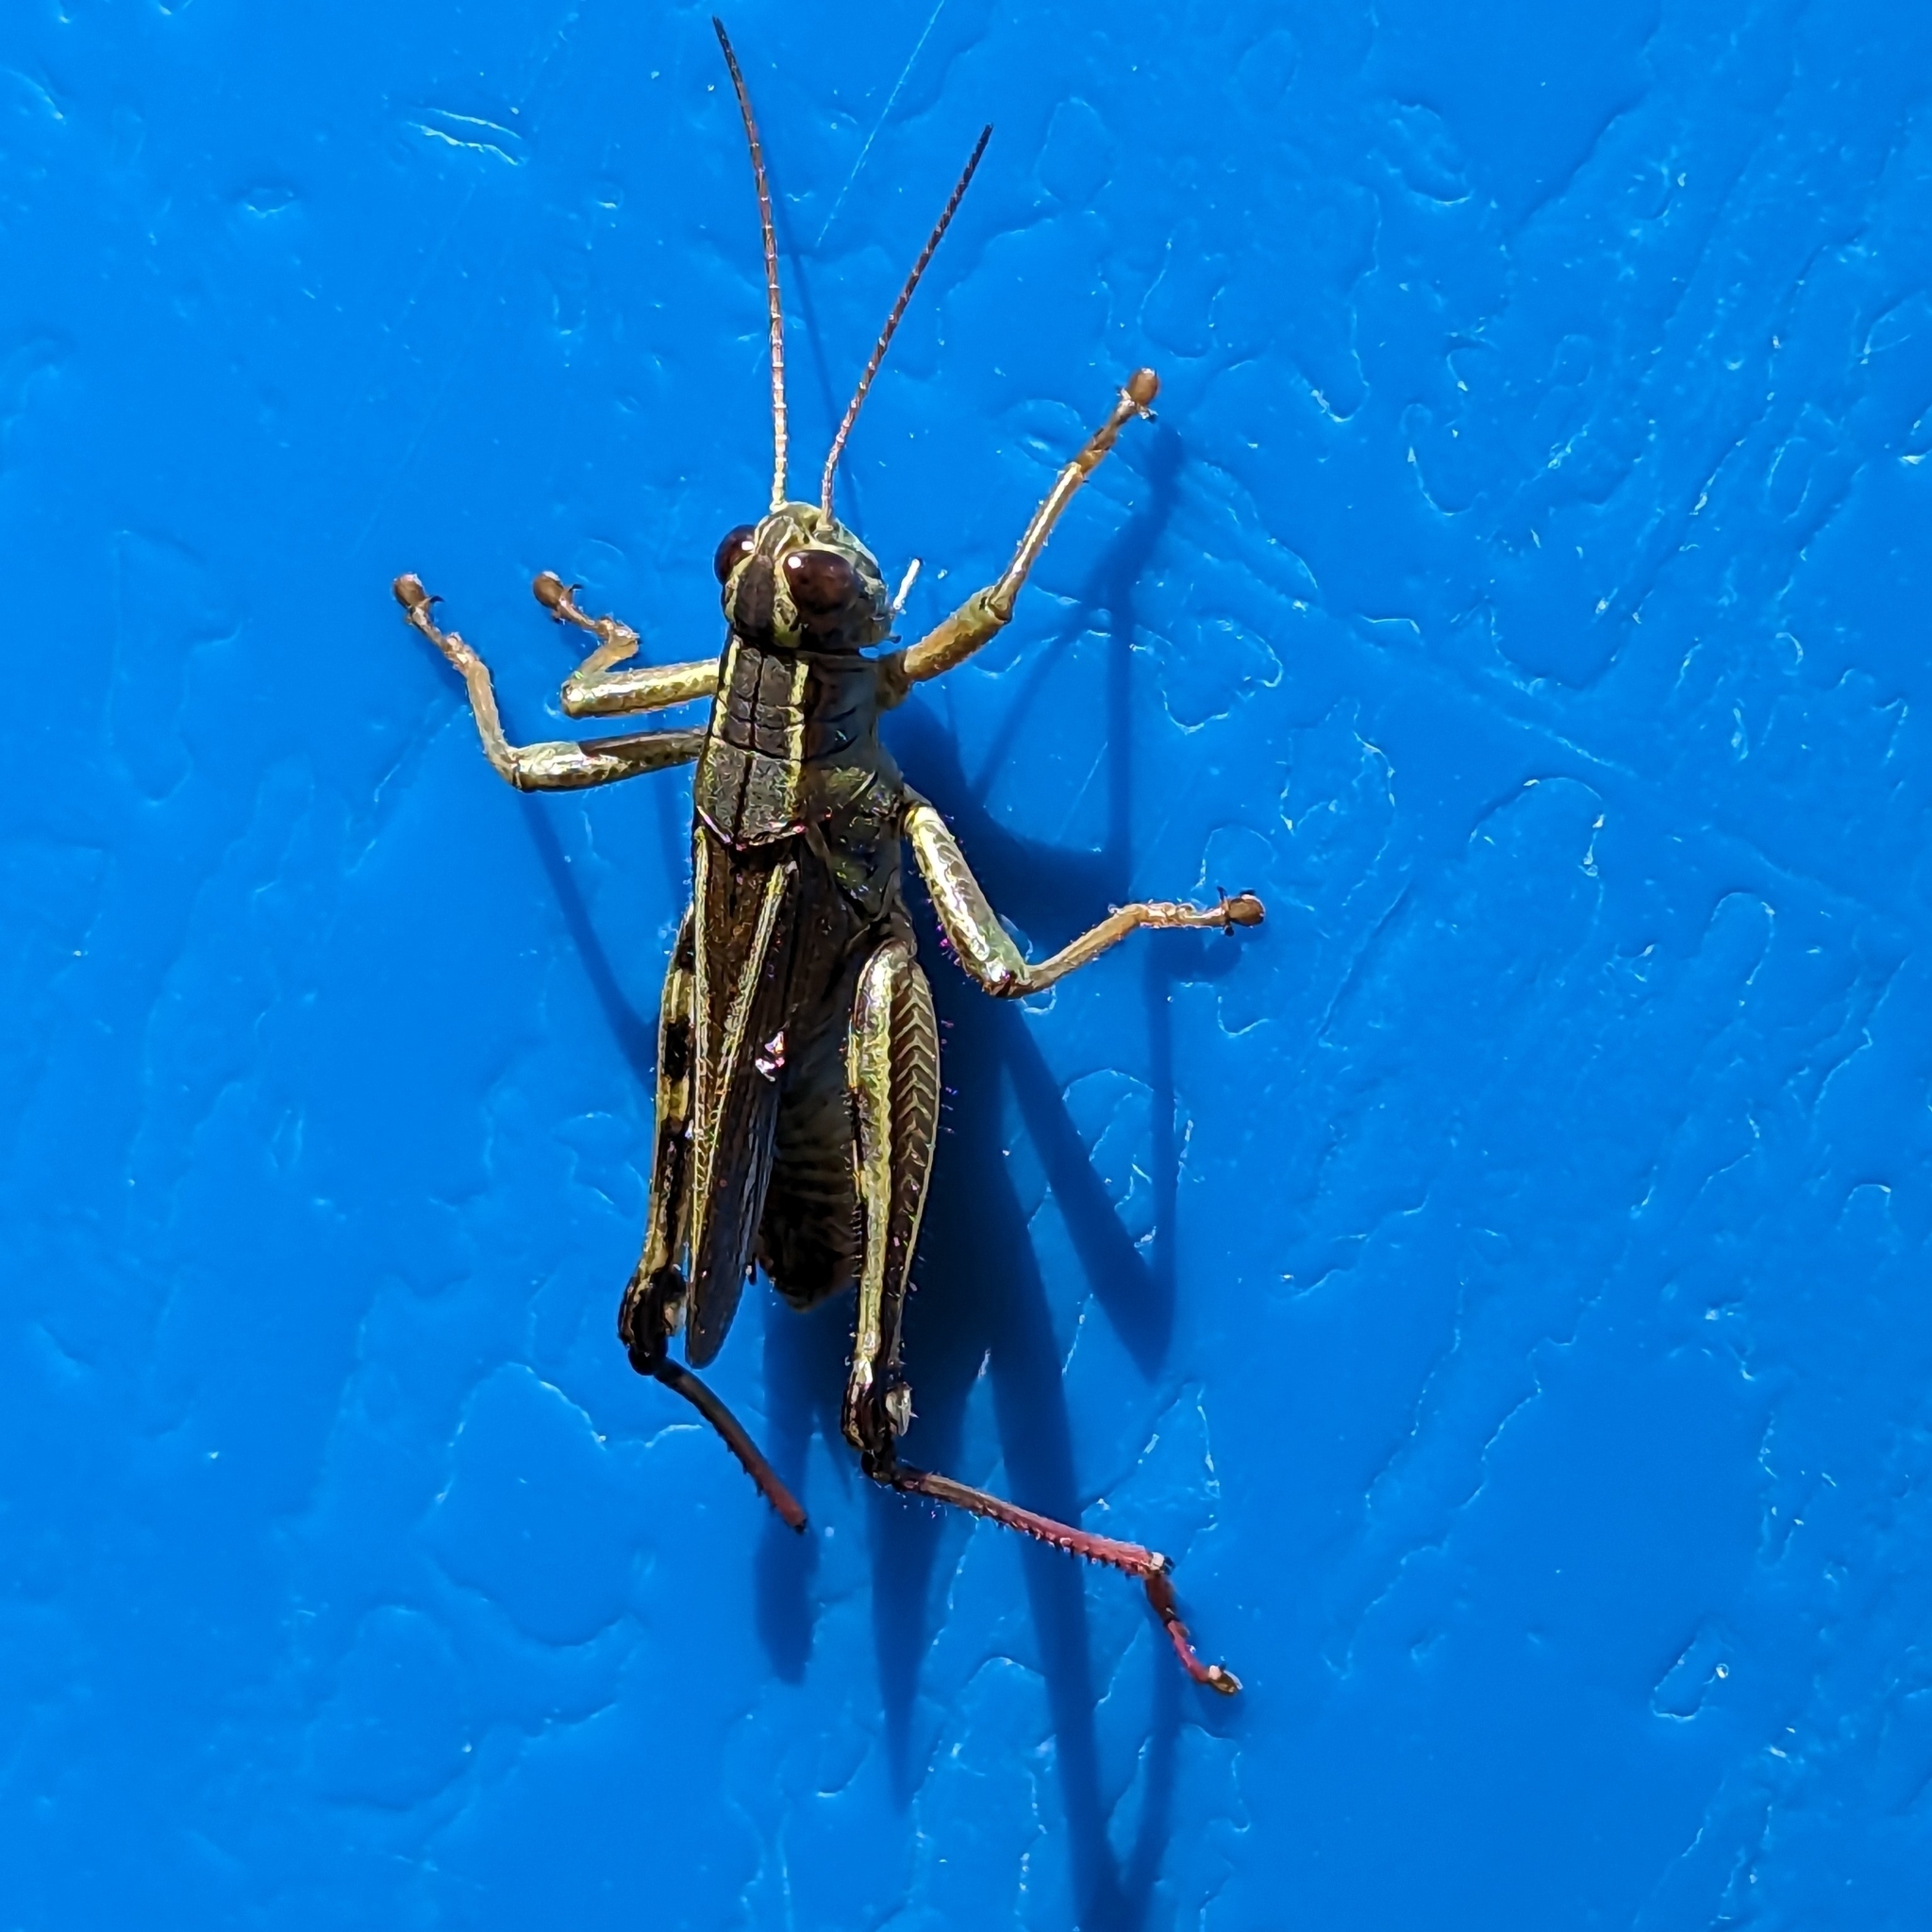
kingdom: Animalia
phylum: Arthropoda
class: Insecta
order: Orthoptera
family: Acrididae
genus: Melanoplus
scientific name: Melanoplus bivittatus
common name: Two-striped grasshopper
